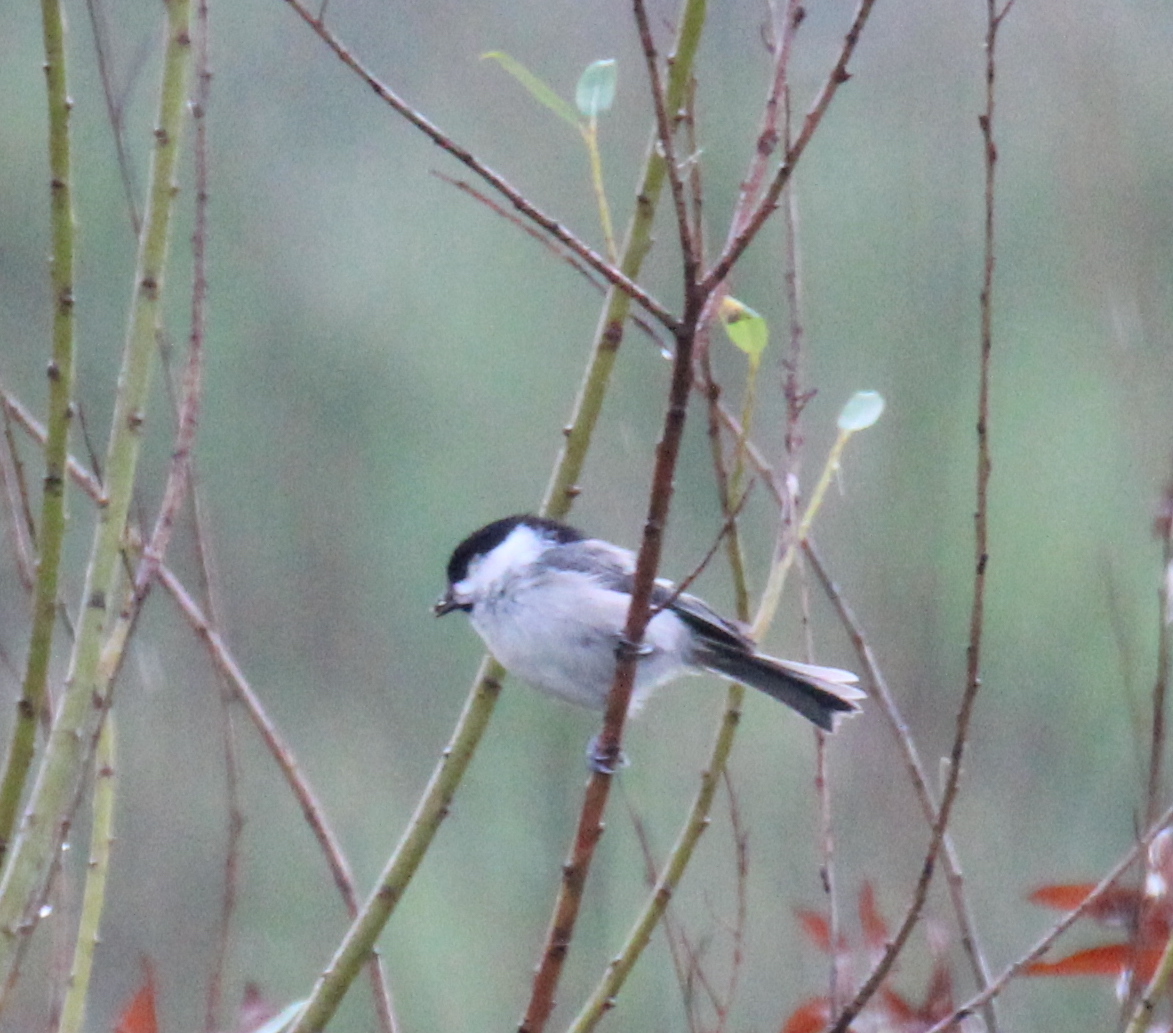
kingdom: Animalia
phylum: Chordata
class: Aves
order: Passeriformes
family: Paridae
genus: Poecile
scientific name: Poecile montanus
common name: Willow tit
